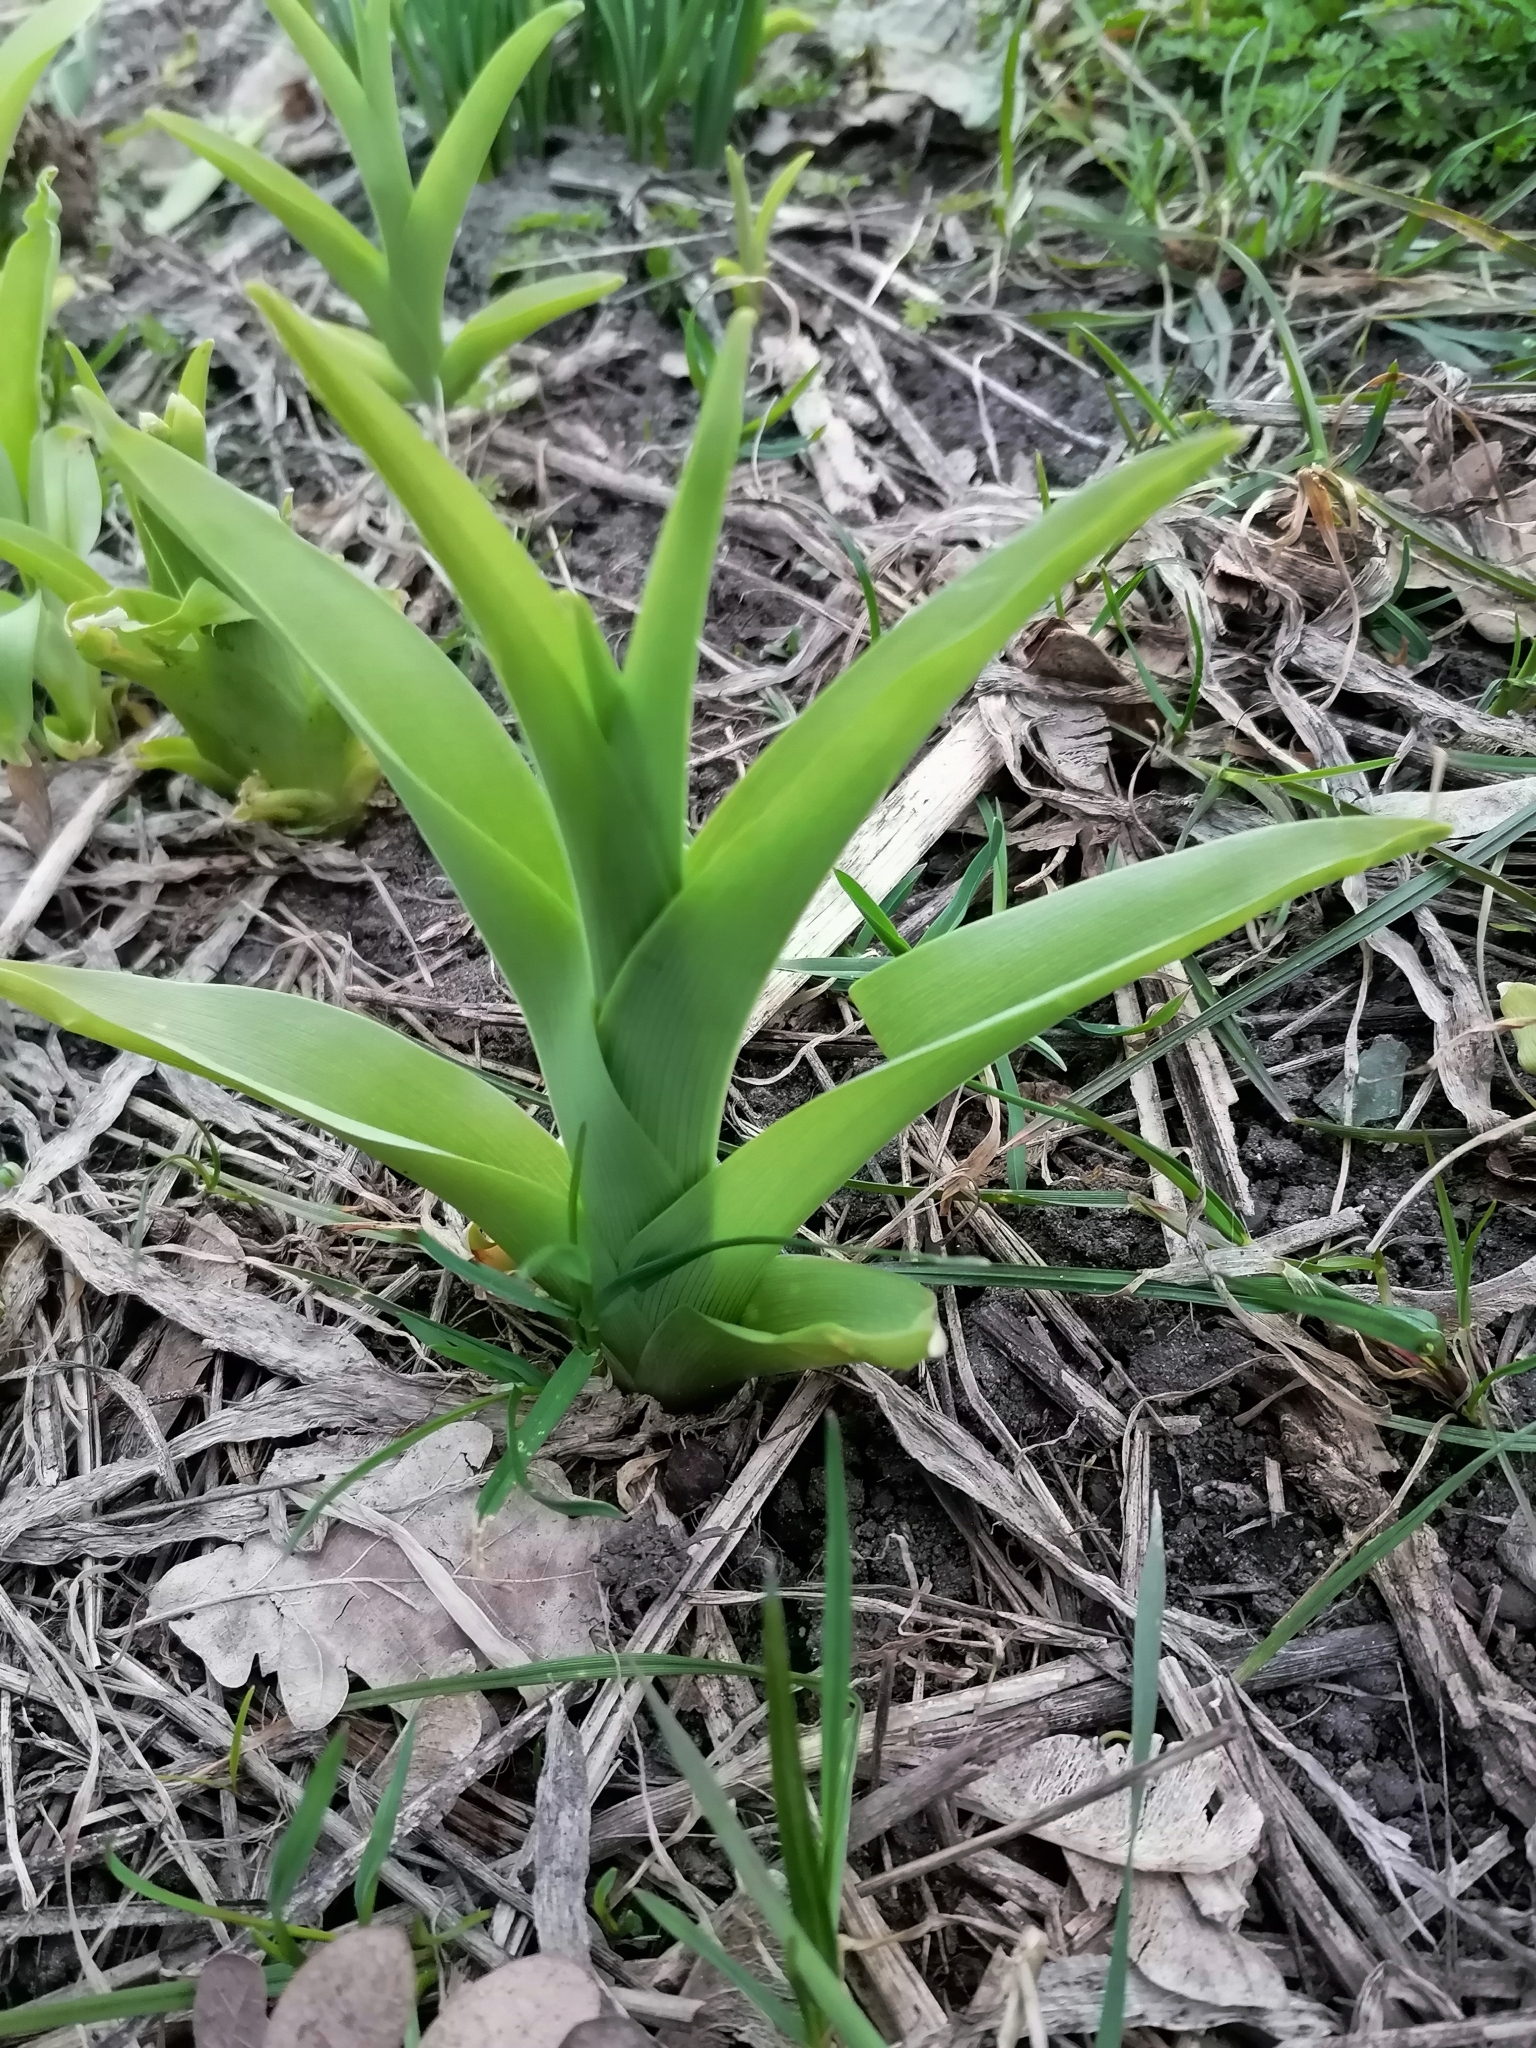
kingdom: Plantae
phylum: Tracheophyta
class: Liliopsida
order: Asparagales
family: Asphodelaceae
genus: Hemerocallis
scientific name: Hemerocallis fulva
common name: Orange day-lily
